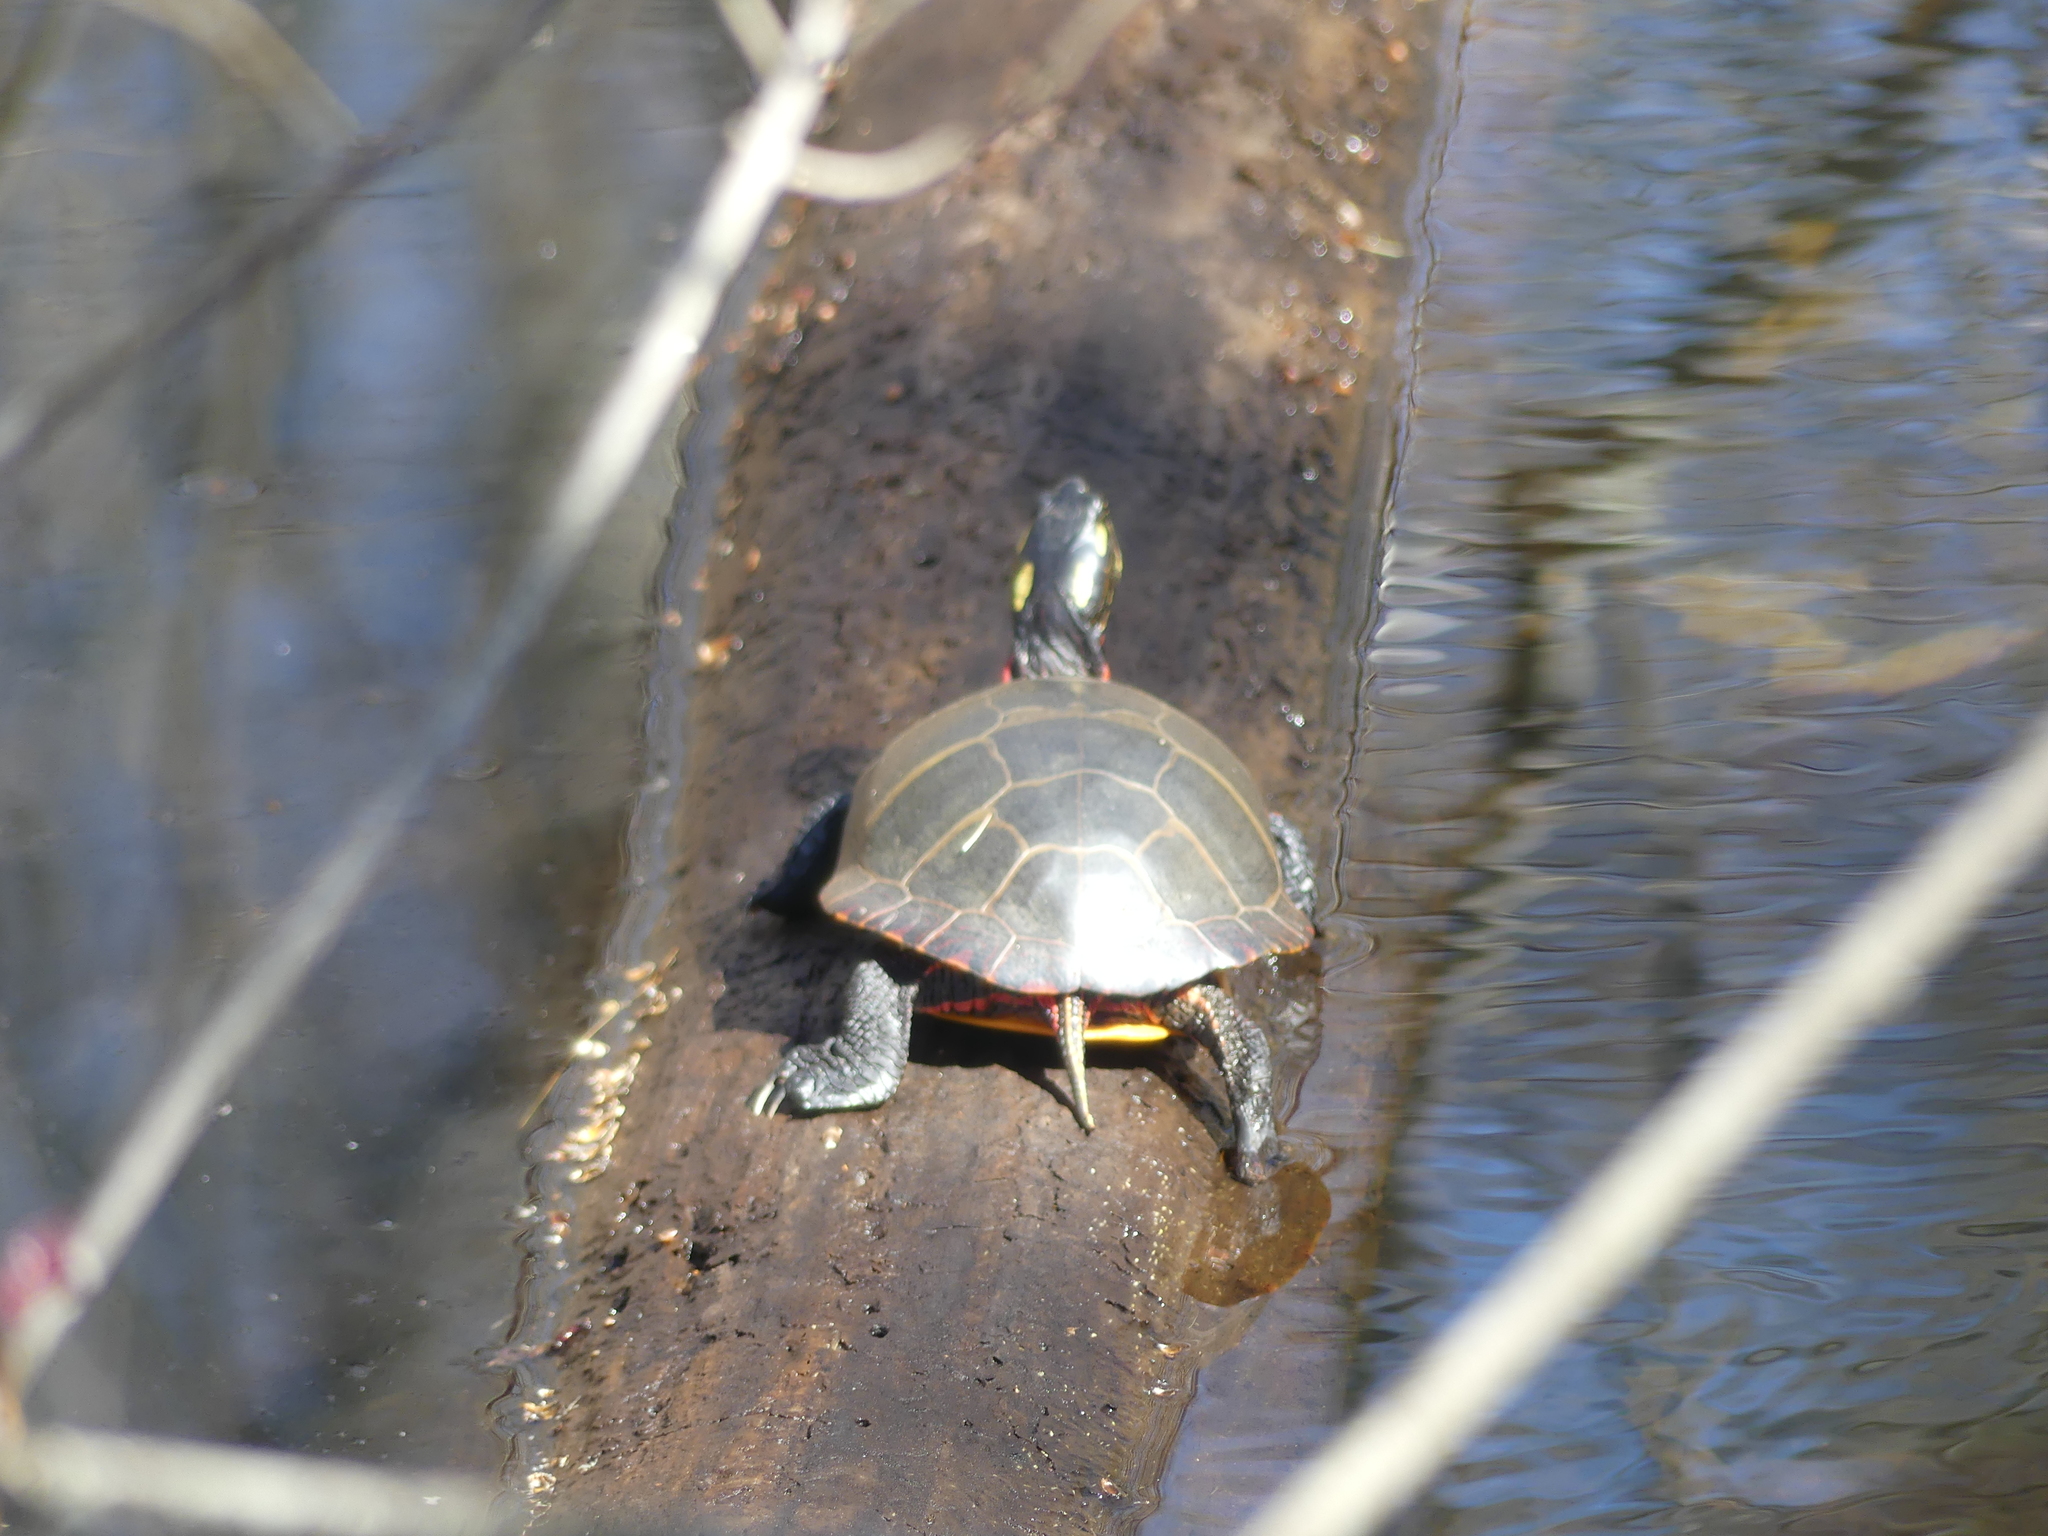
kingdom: Animalia
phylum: Chordata
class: Testudines
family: Emydidae
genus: Chrysemys
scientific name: Chrysemys picta
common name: Painted turtle
